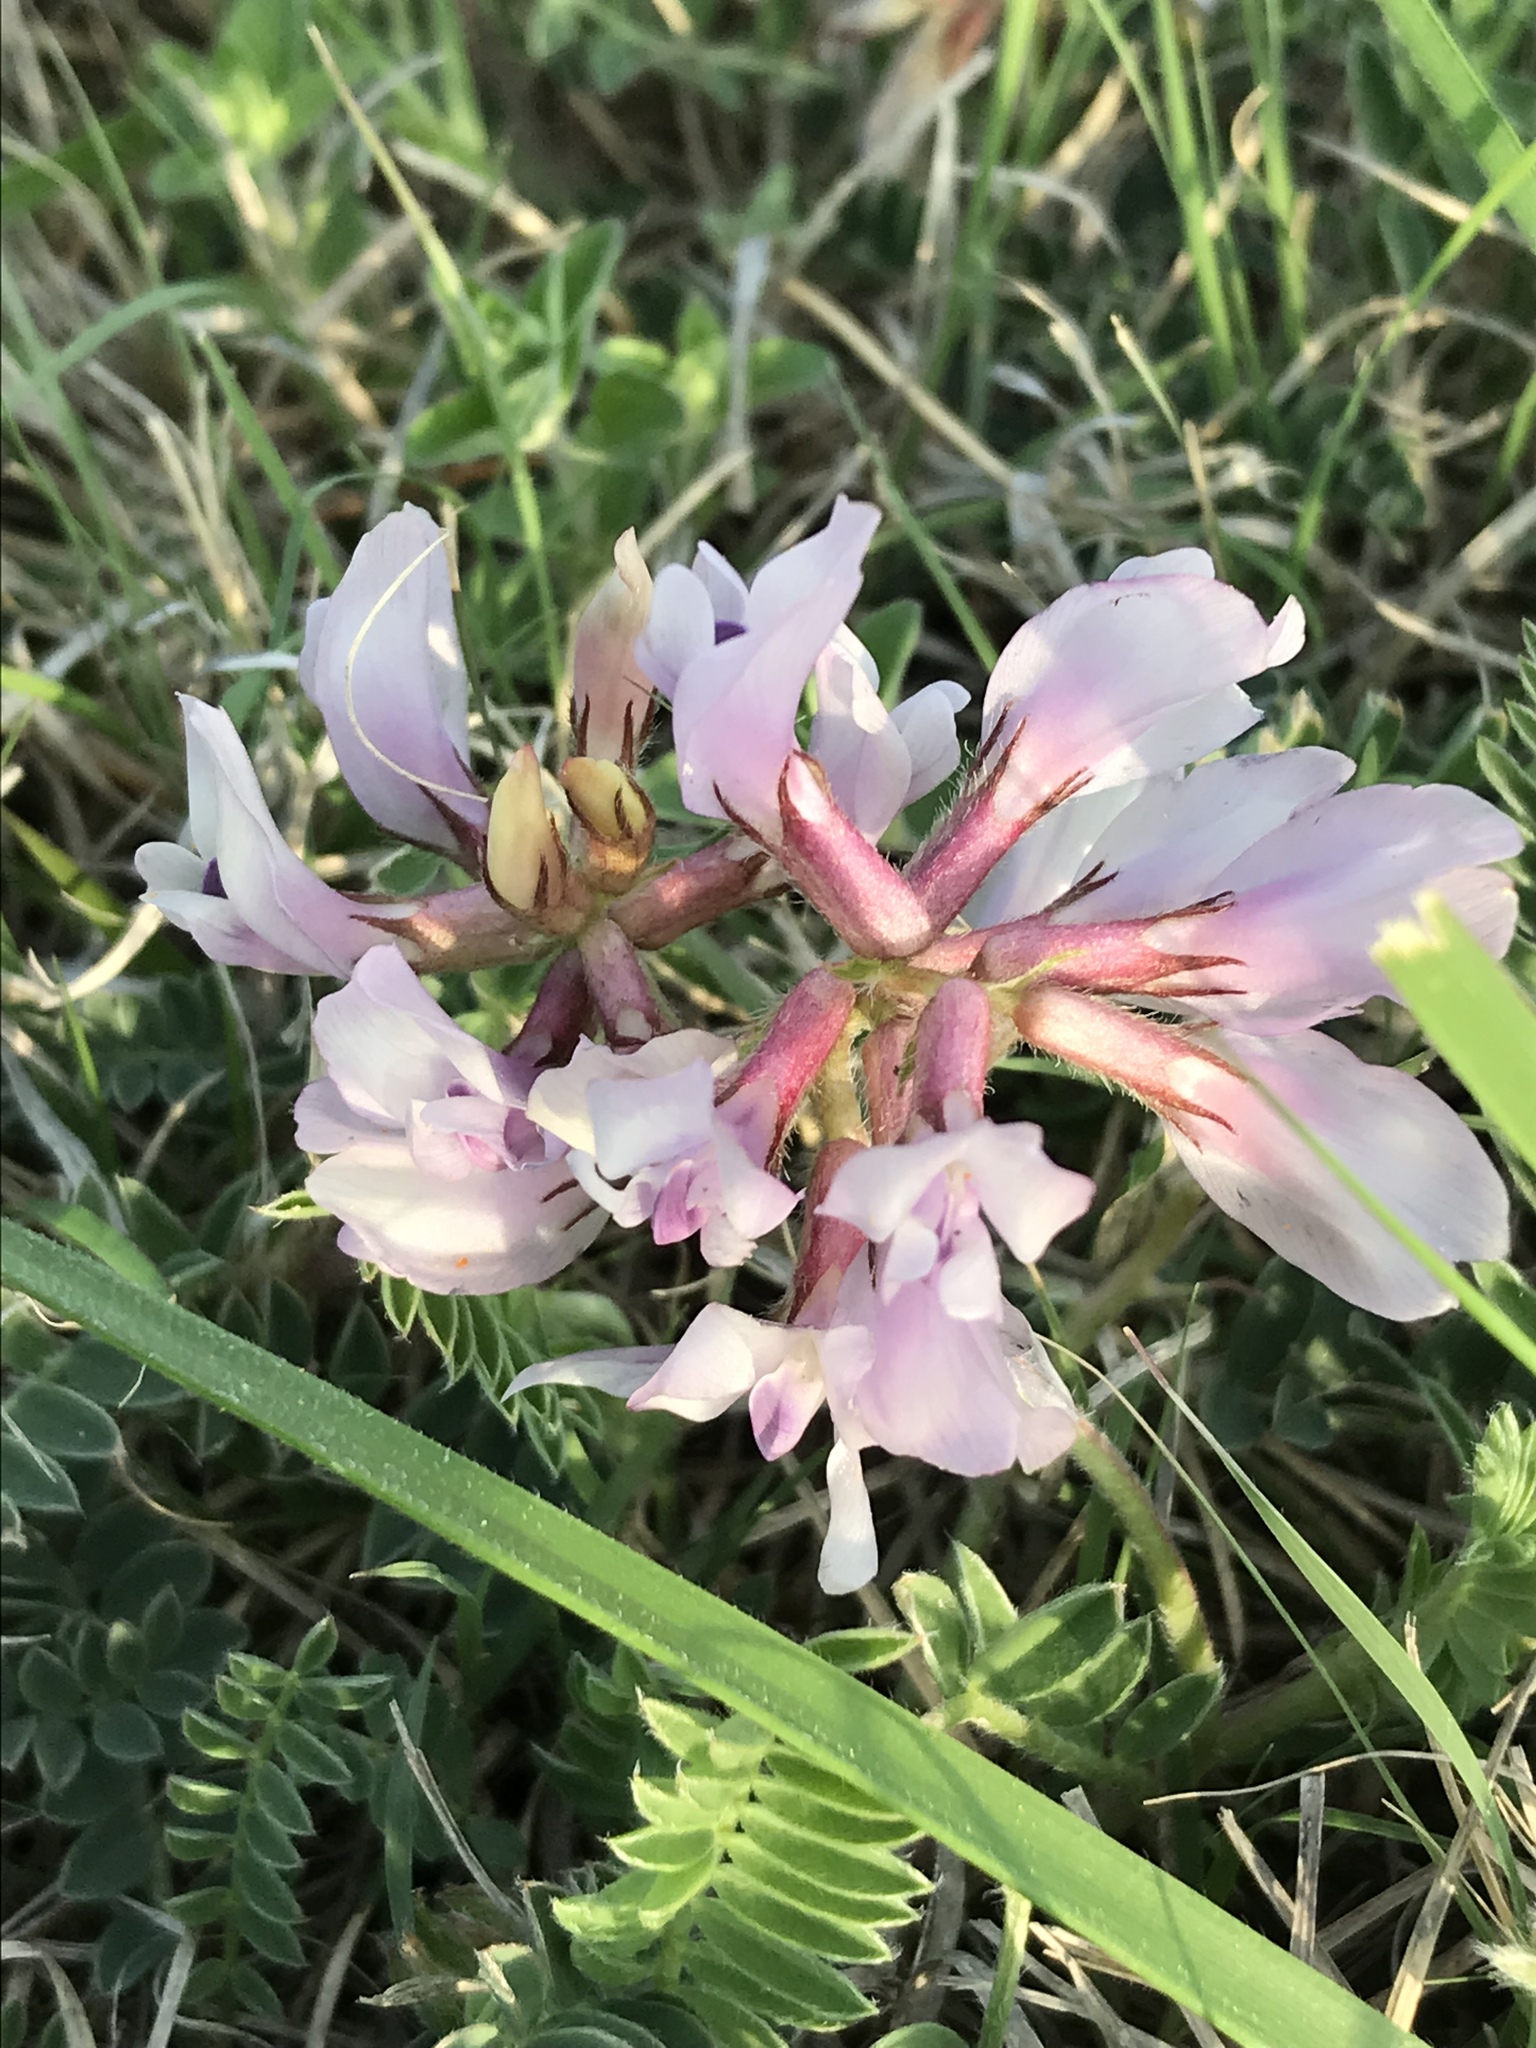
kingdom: Plantae
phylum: Tracheophyta
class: Magnoliopsida
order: Fabales
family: Fabaceae
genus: Astragalus
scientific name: Astragalus plattensis
